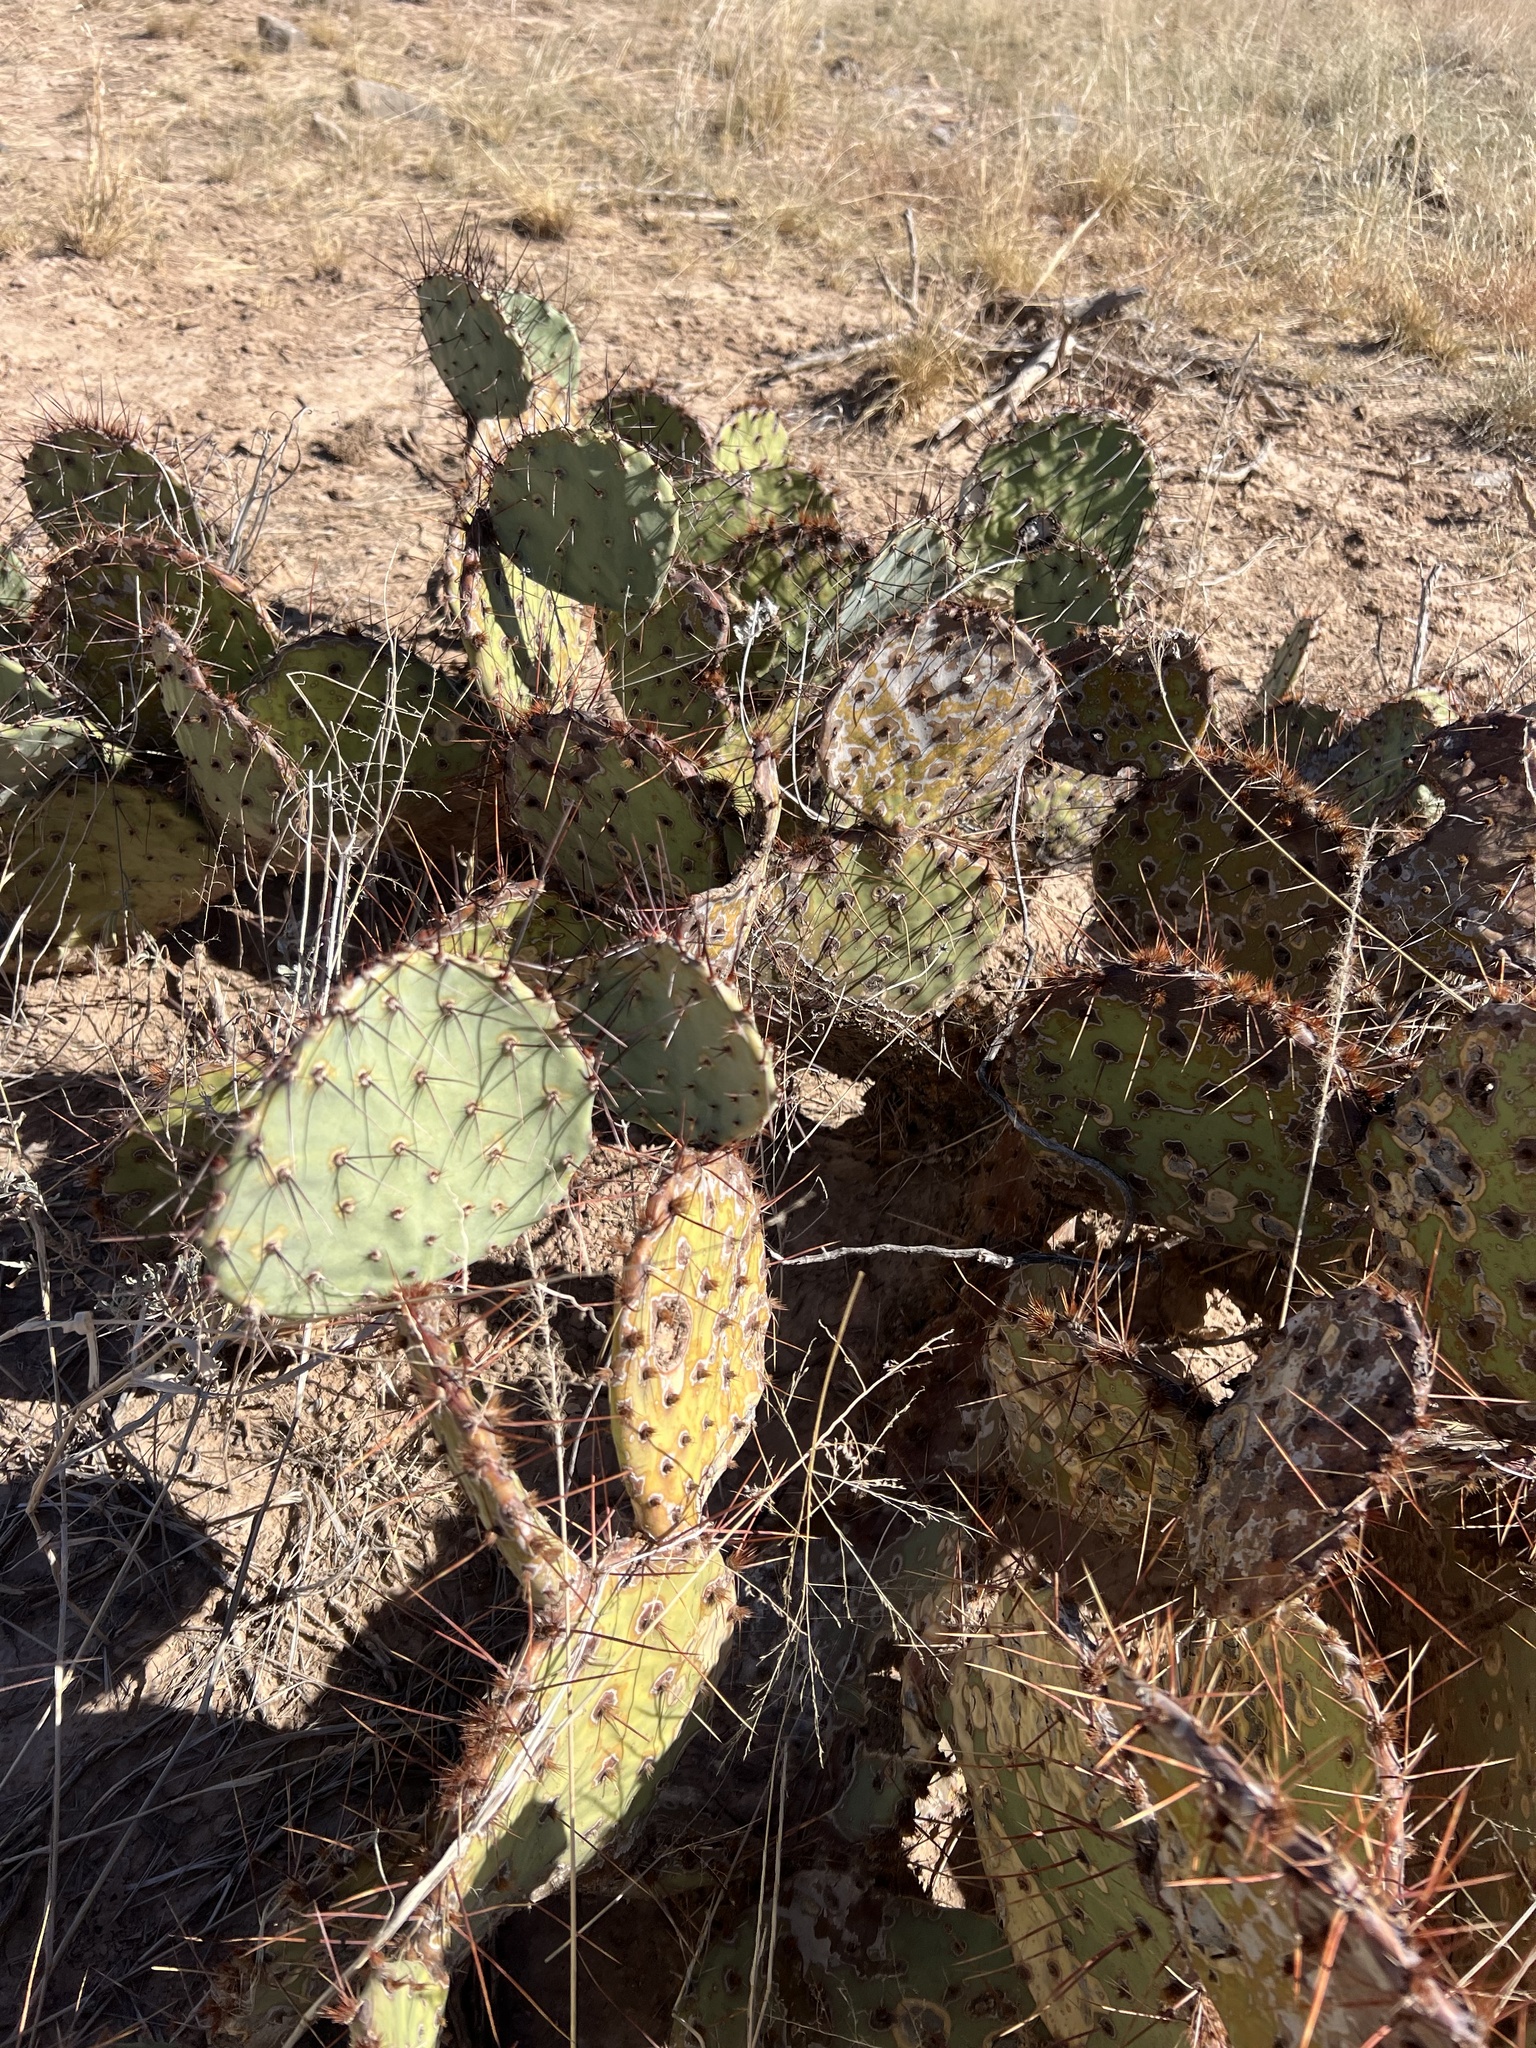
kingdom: Plantae
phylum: Tracheophyta
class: Magnoliopsida
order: Caryophyllales
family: Cactaceae
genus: Opuntia
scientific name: Opuntia phaeacantha
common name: New mexico prickly-pear
